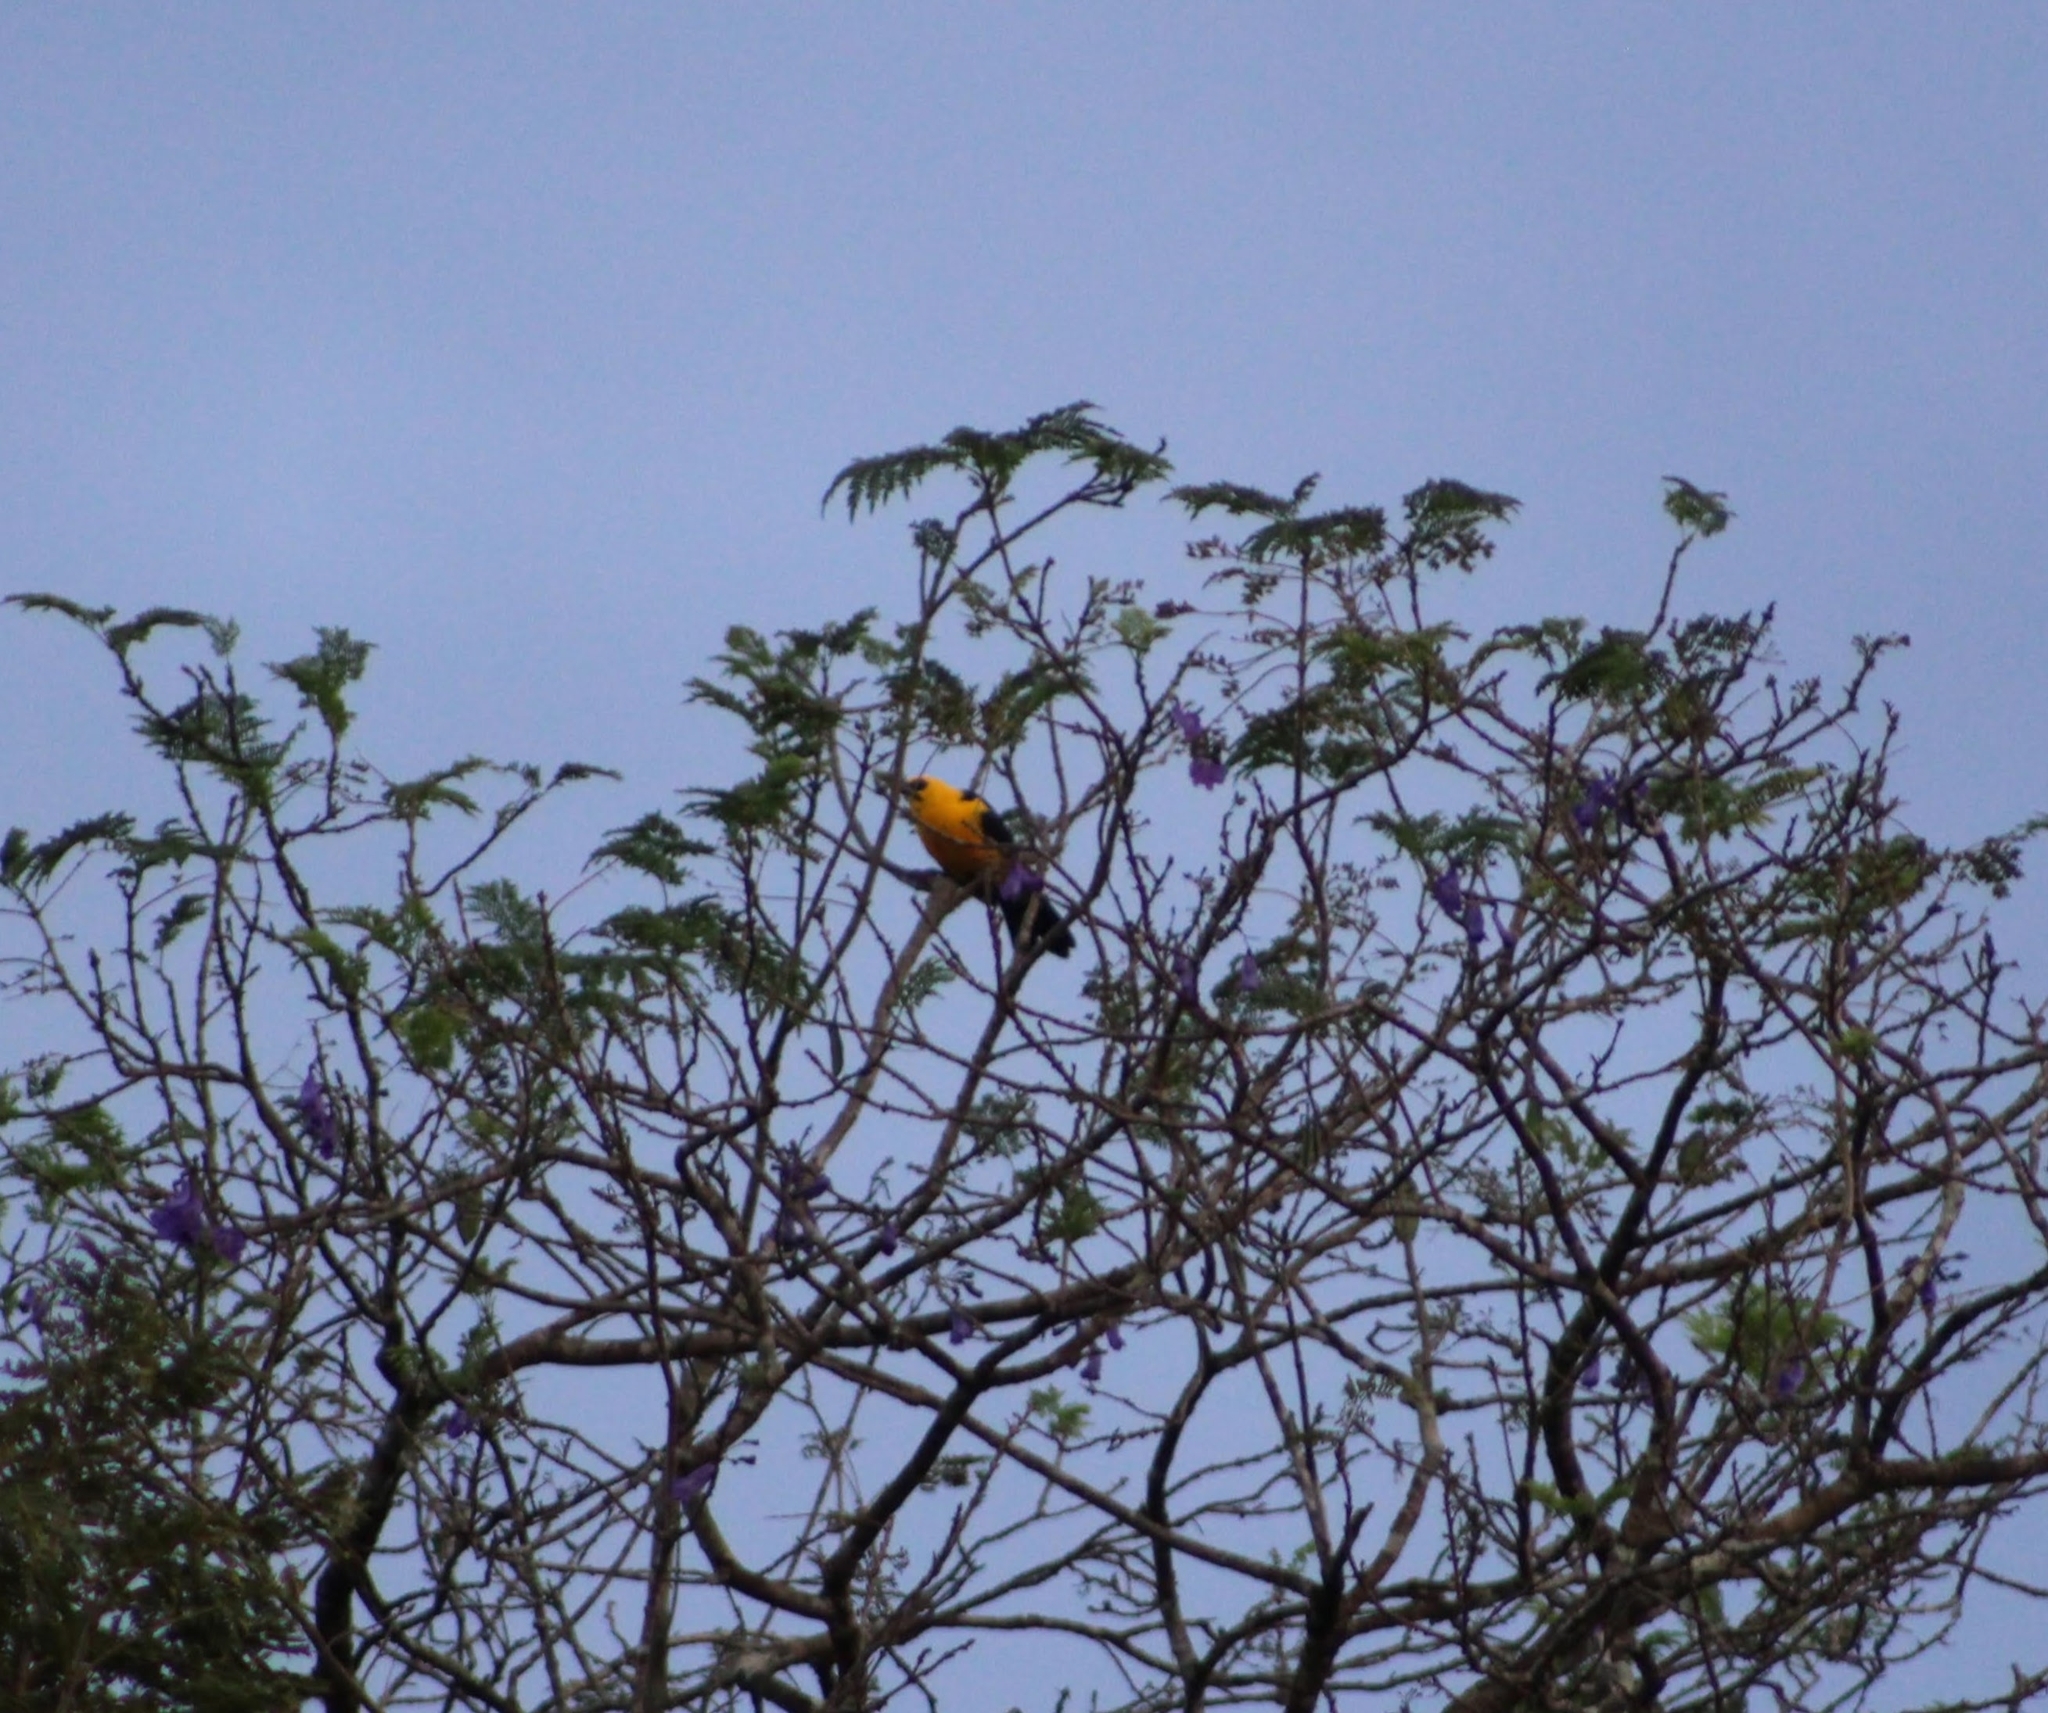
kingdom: Animalia
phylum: Chordata
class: Aves
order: Passeriformes
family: Icteridae
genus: Gymnomystax
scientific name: Gymnomystax mexicanus
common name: Oriole blackbird
